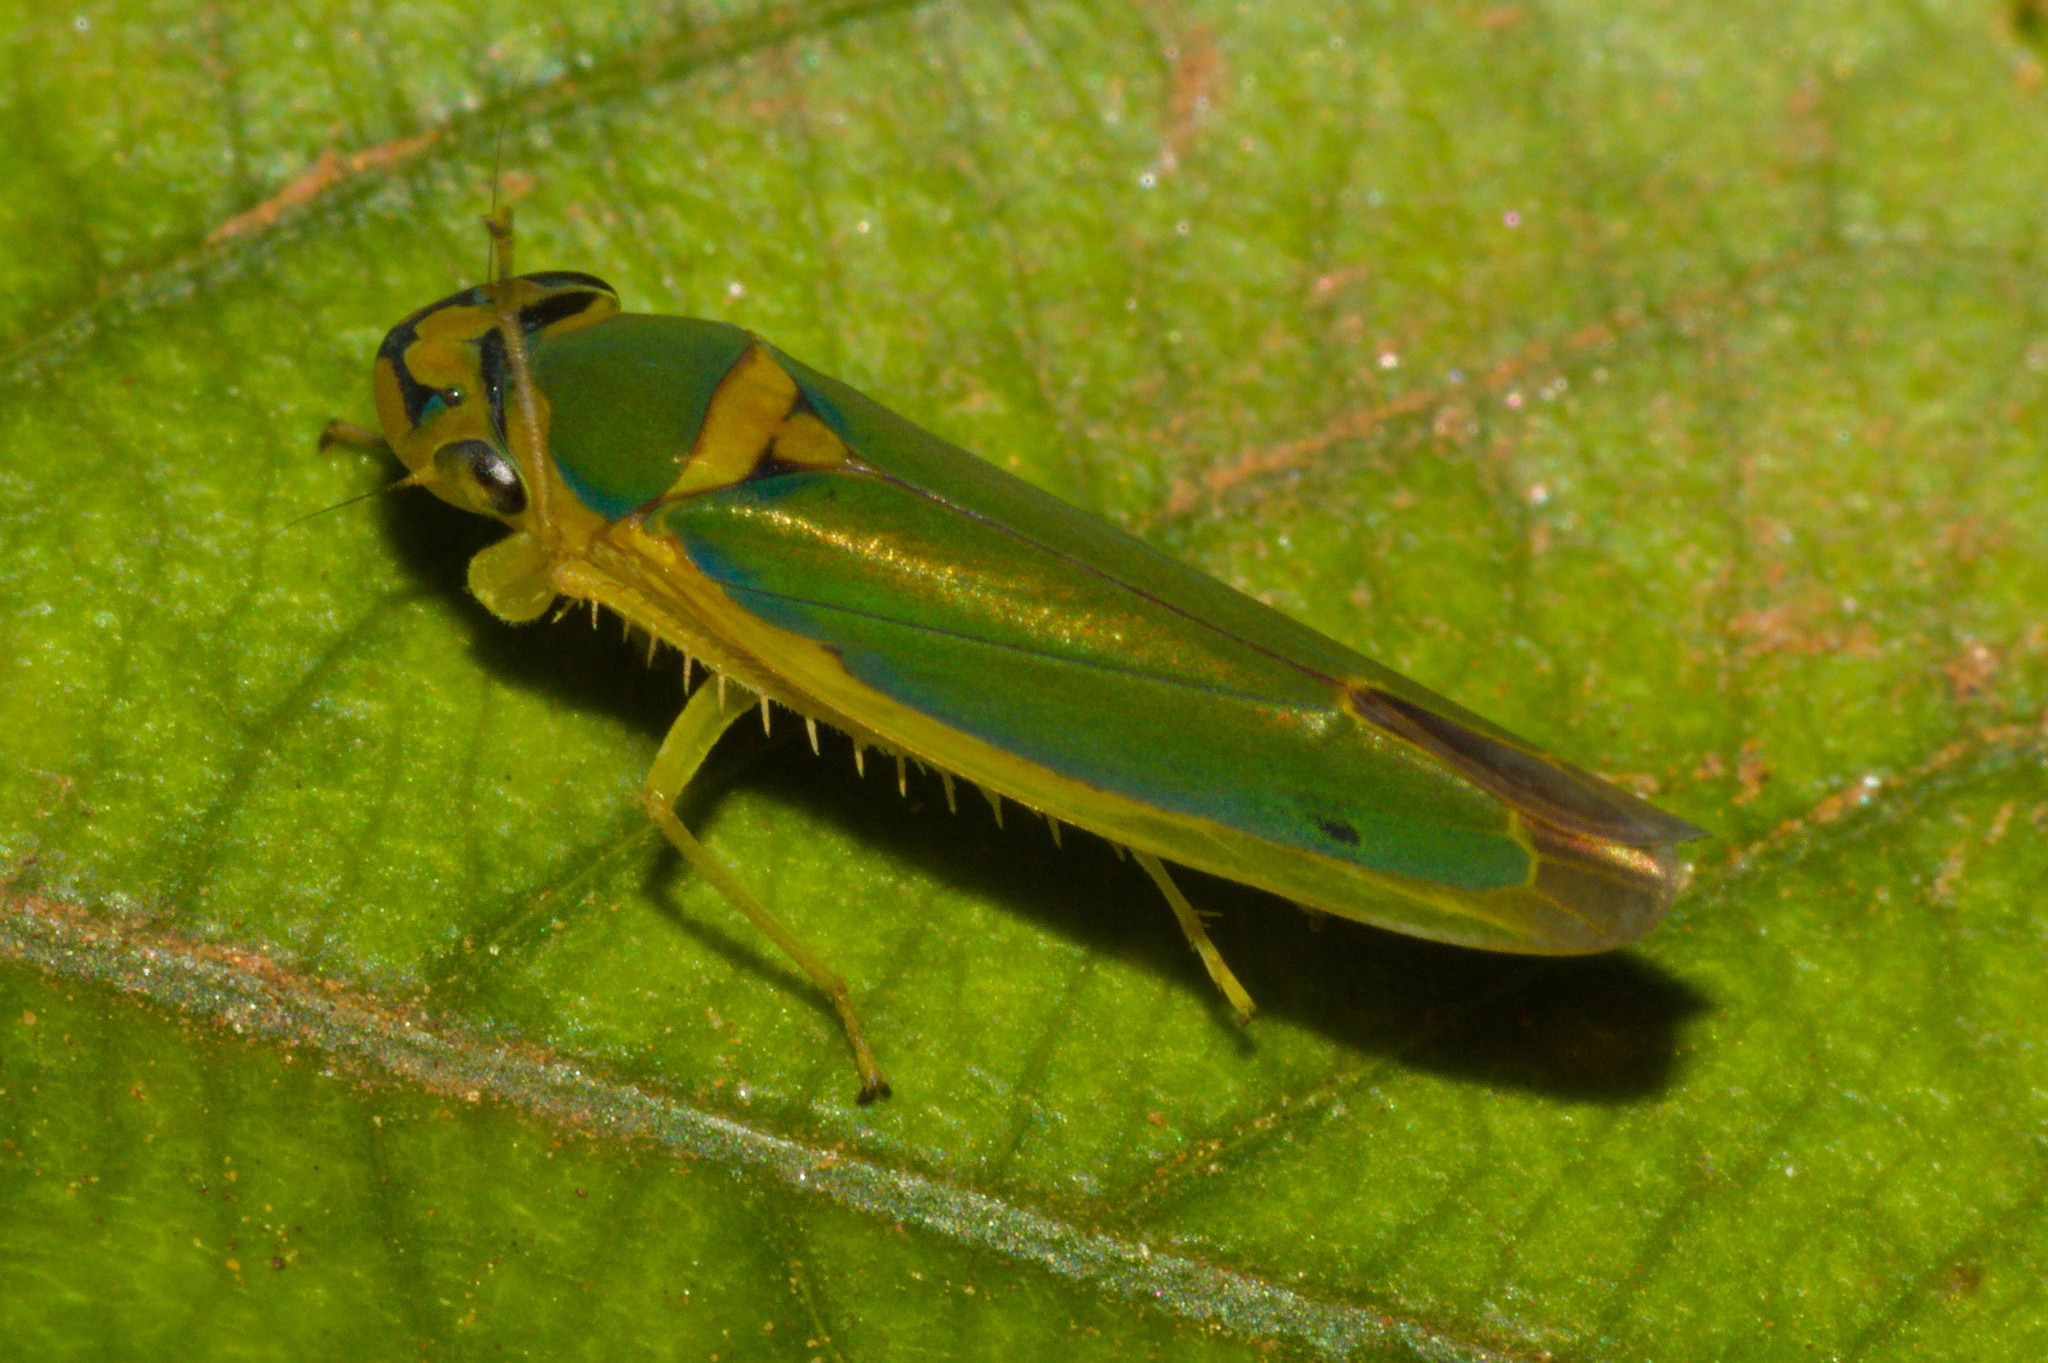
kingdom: Animalia
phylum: Arthropoda
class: Insecta
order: Hemiptera
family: Cicadellidae
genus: Catagonalia
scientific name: Catagonalia conjunctula
